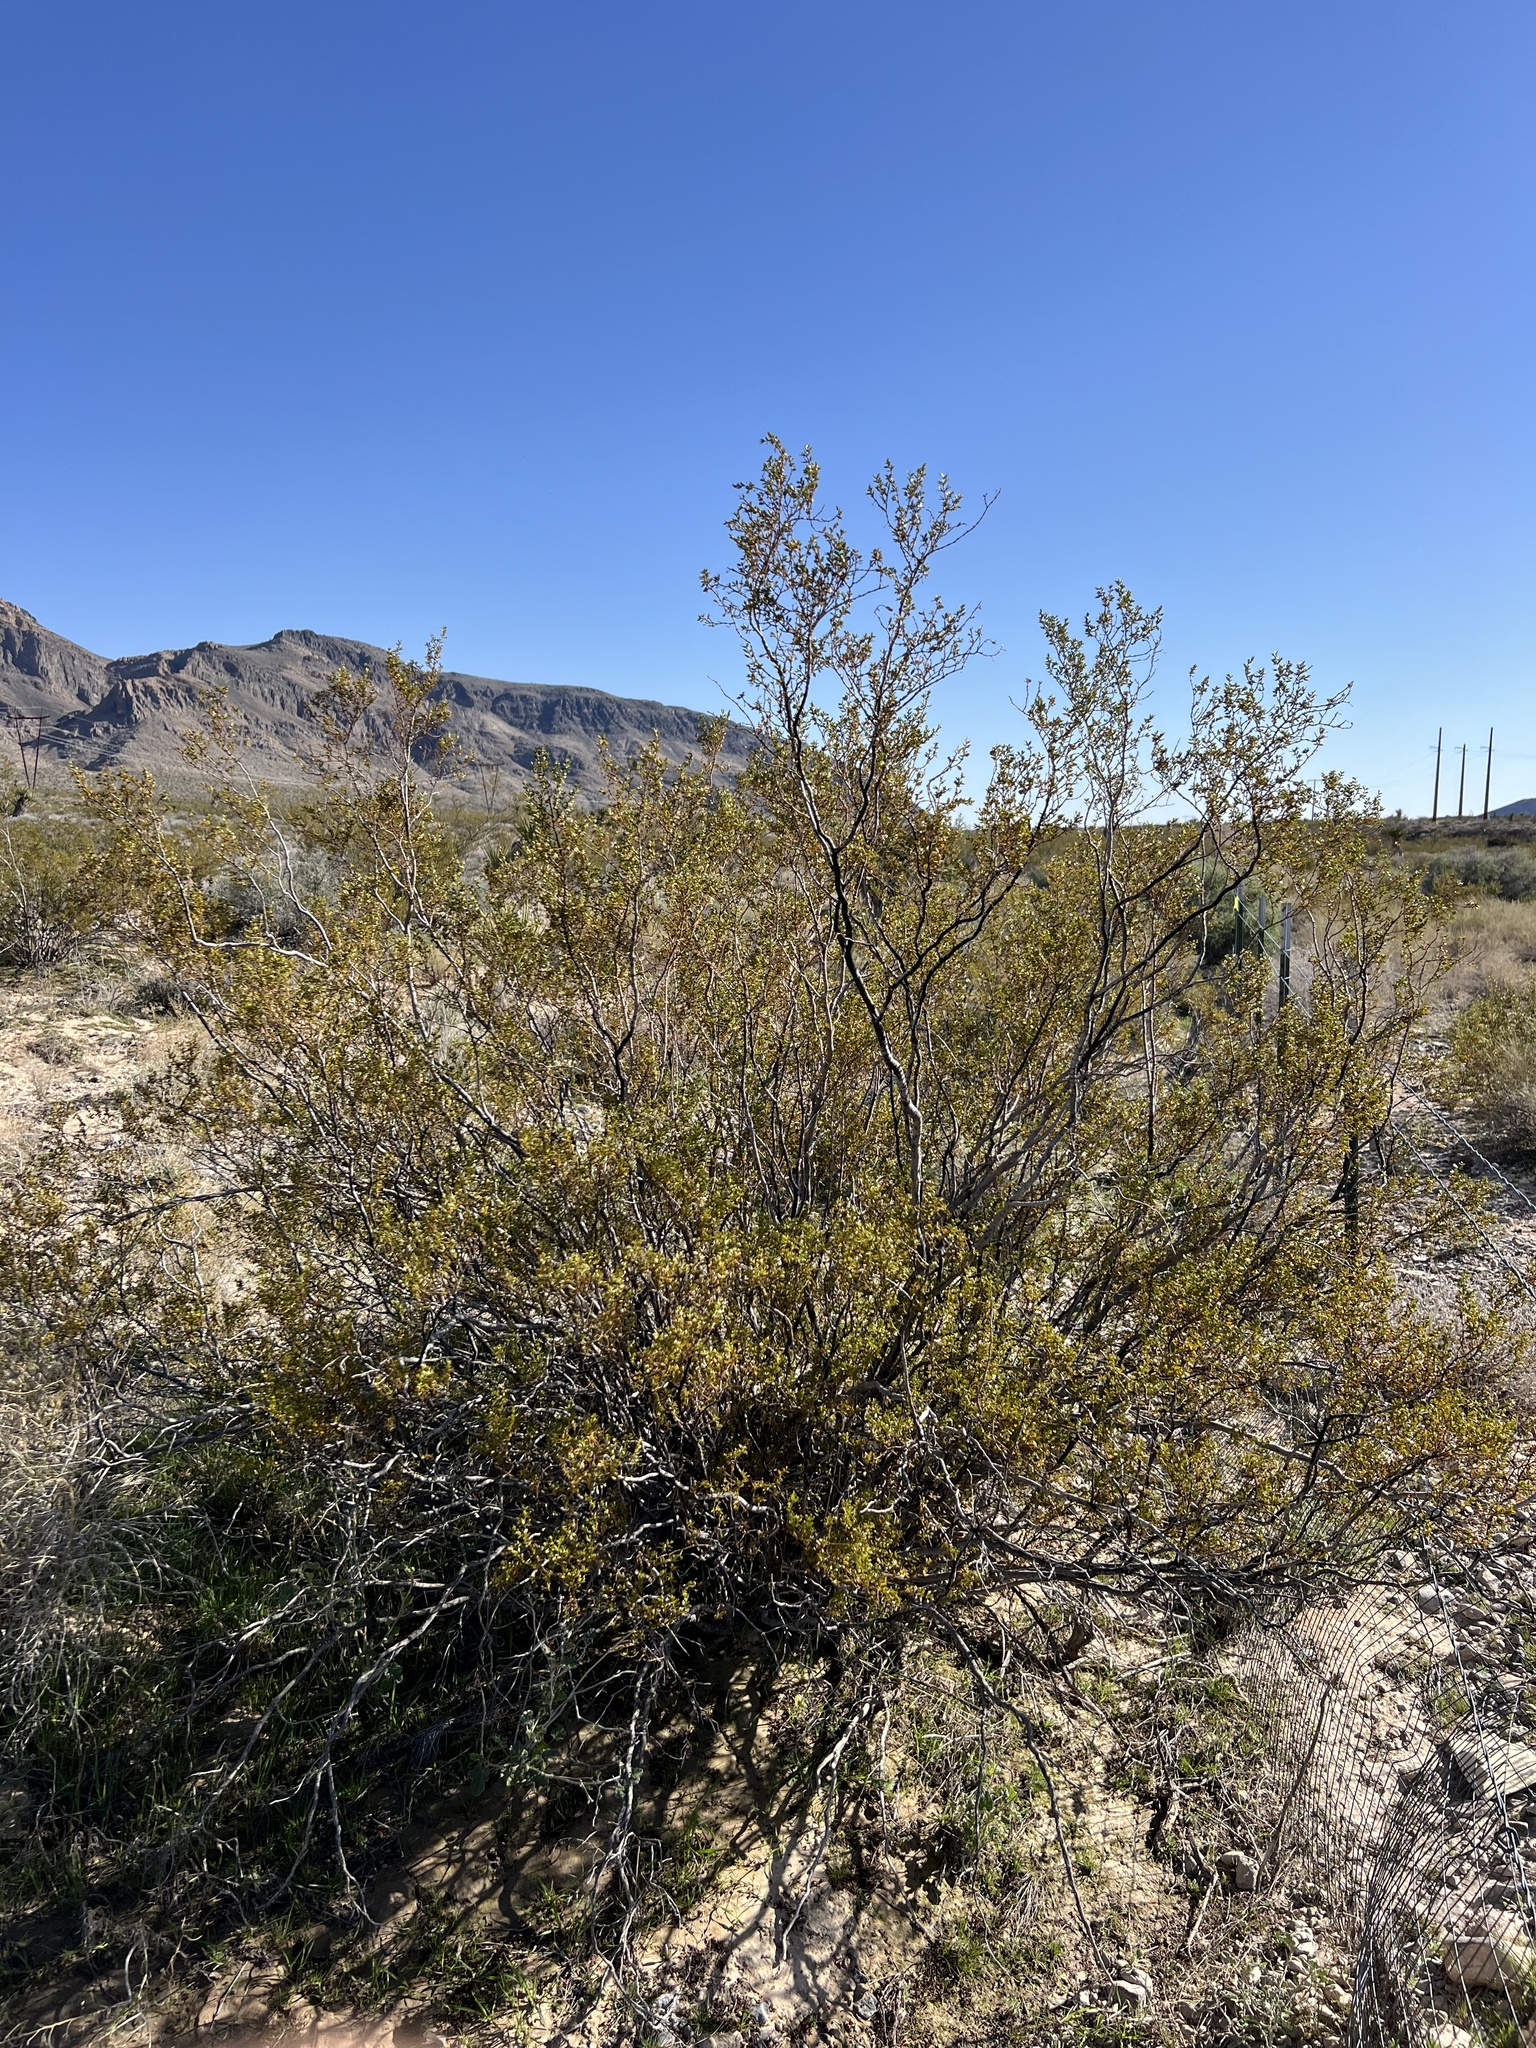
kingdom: Plantae
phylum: Tracheophyta
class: Magnoliopsida
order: Zygophyllales
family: Zygophyllaceae
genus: Larrea
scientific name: Larrea tridentata
